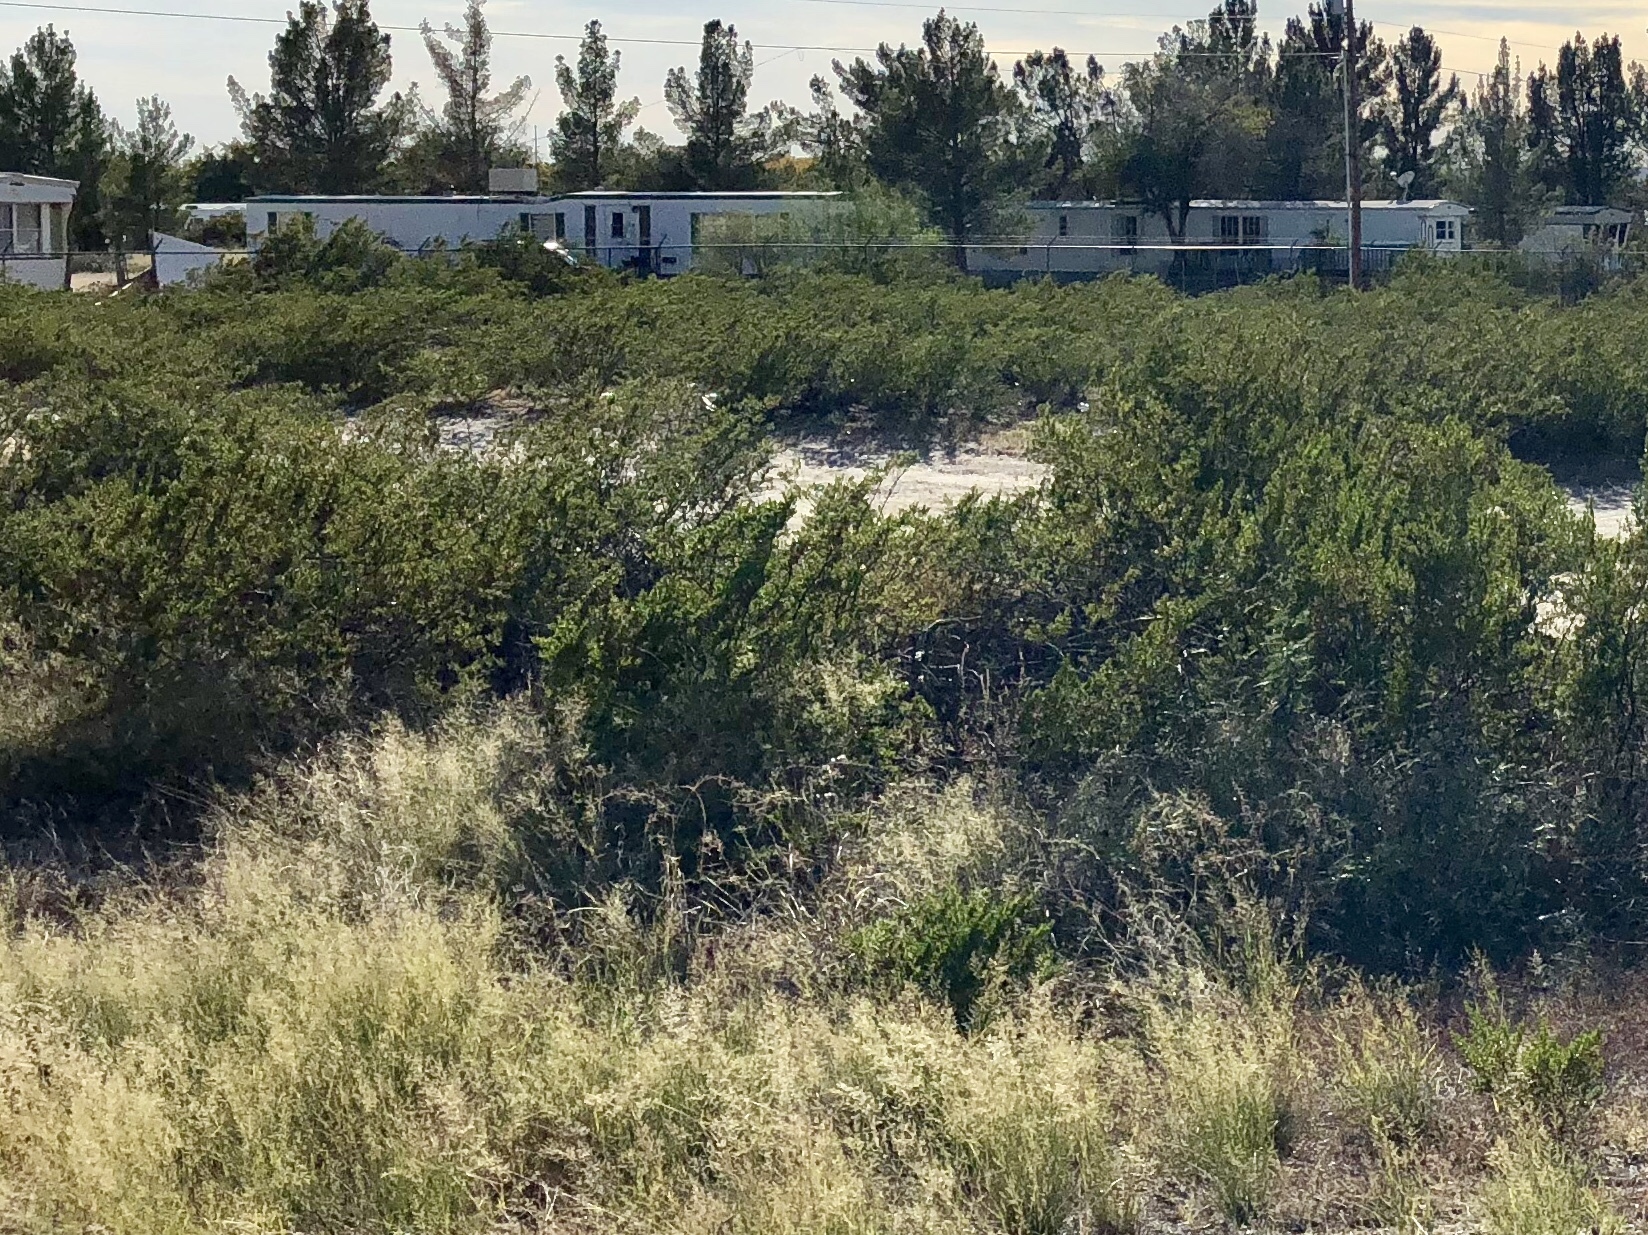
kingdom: Plantae
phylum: Tracheophyta
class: Magnoliopsida
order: Zygophyllales
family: Zygophyllaceae
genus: Larrea
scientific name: Larrea tridentata
